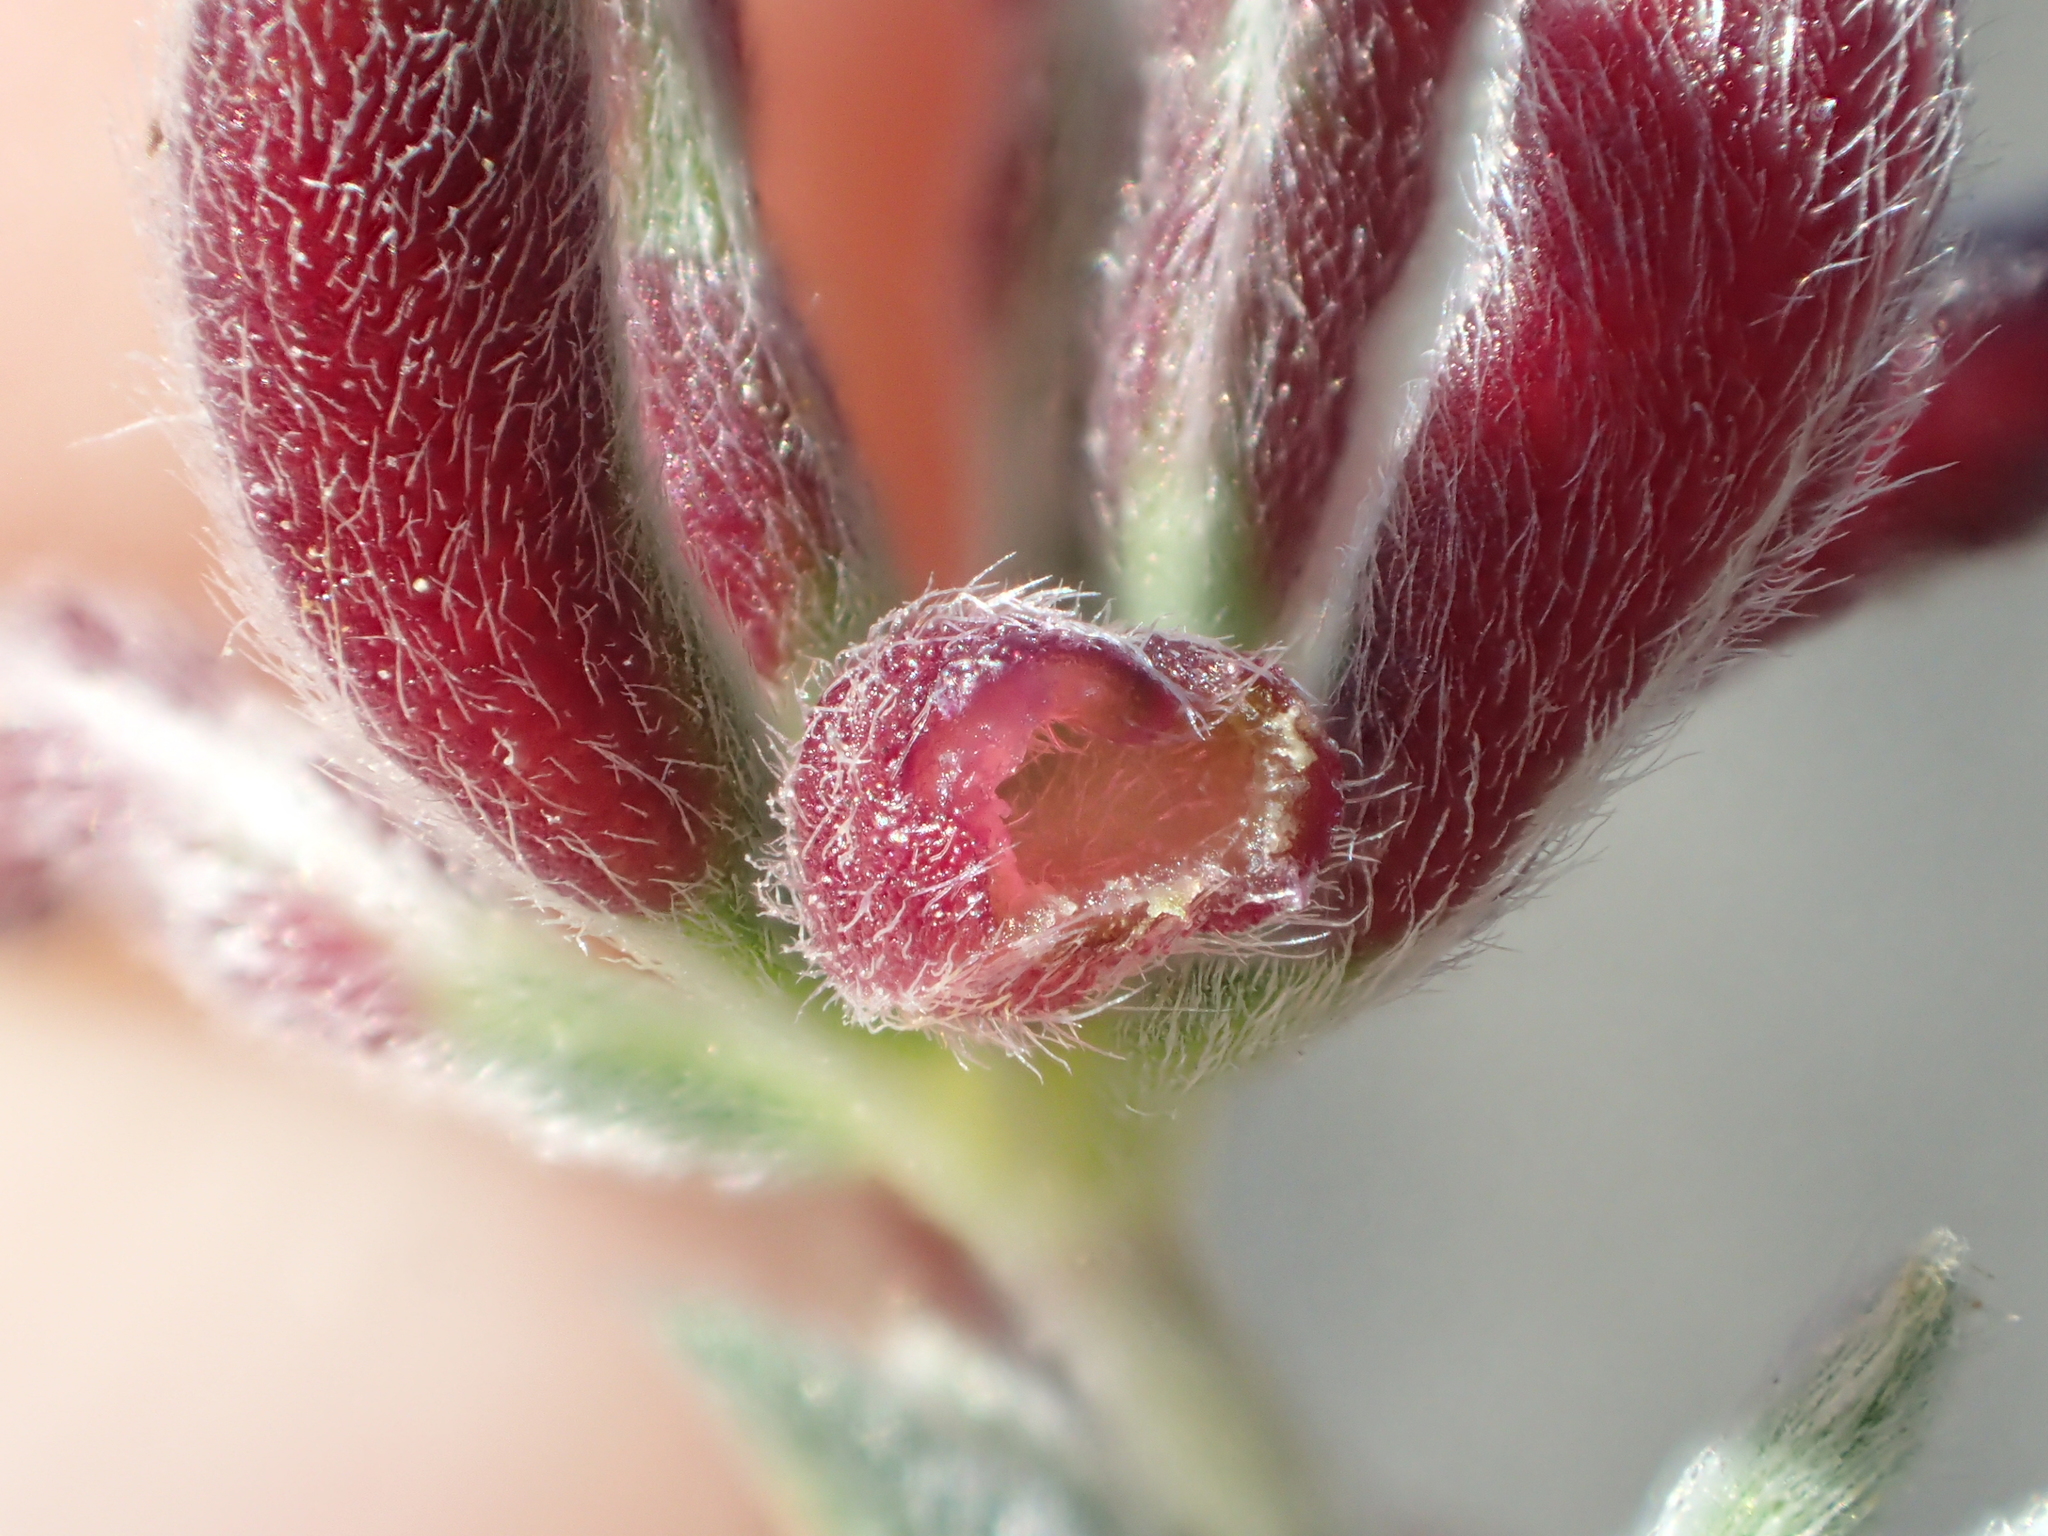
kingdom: Animalia
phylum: Arthropoda
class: Insecta
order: Diptera
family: Cecidomyiidae
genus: Dasineura
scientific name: Dasineura lupinorum
